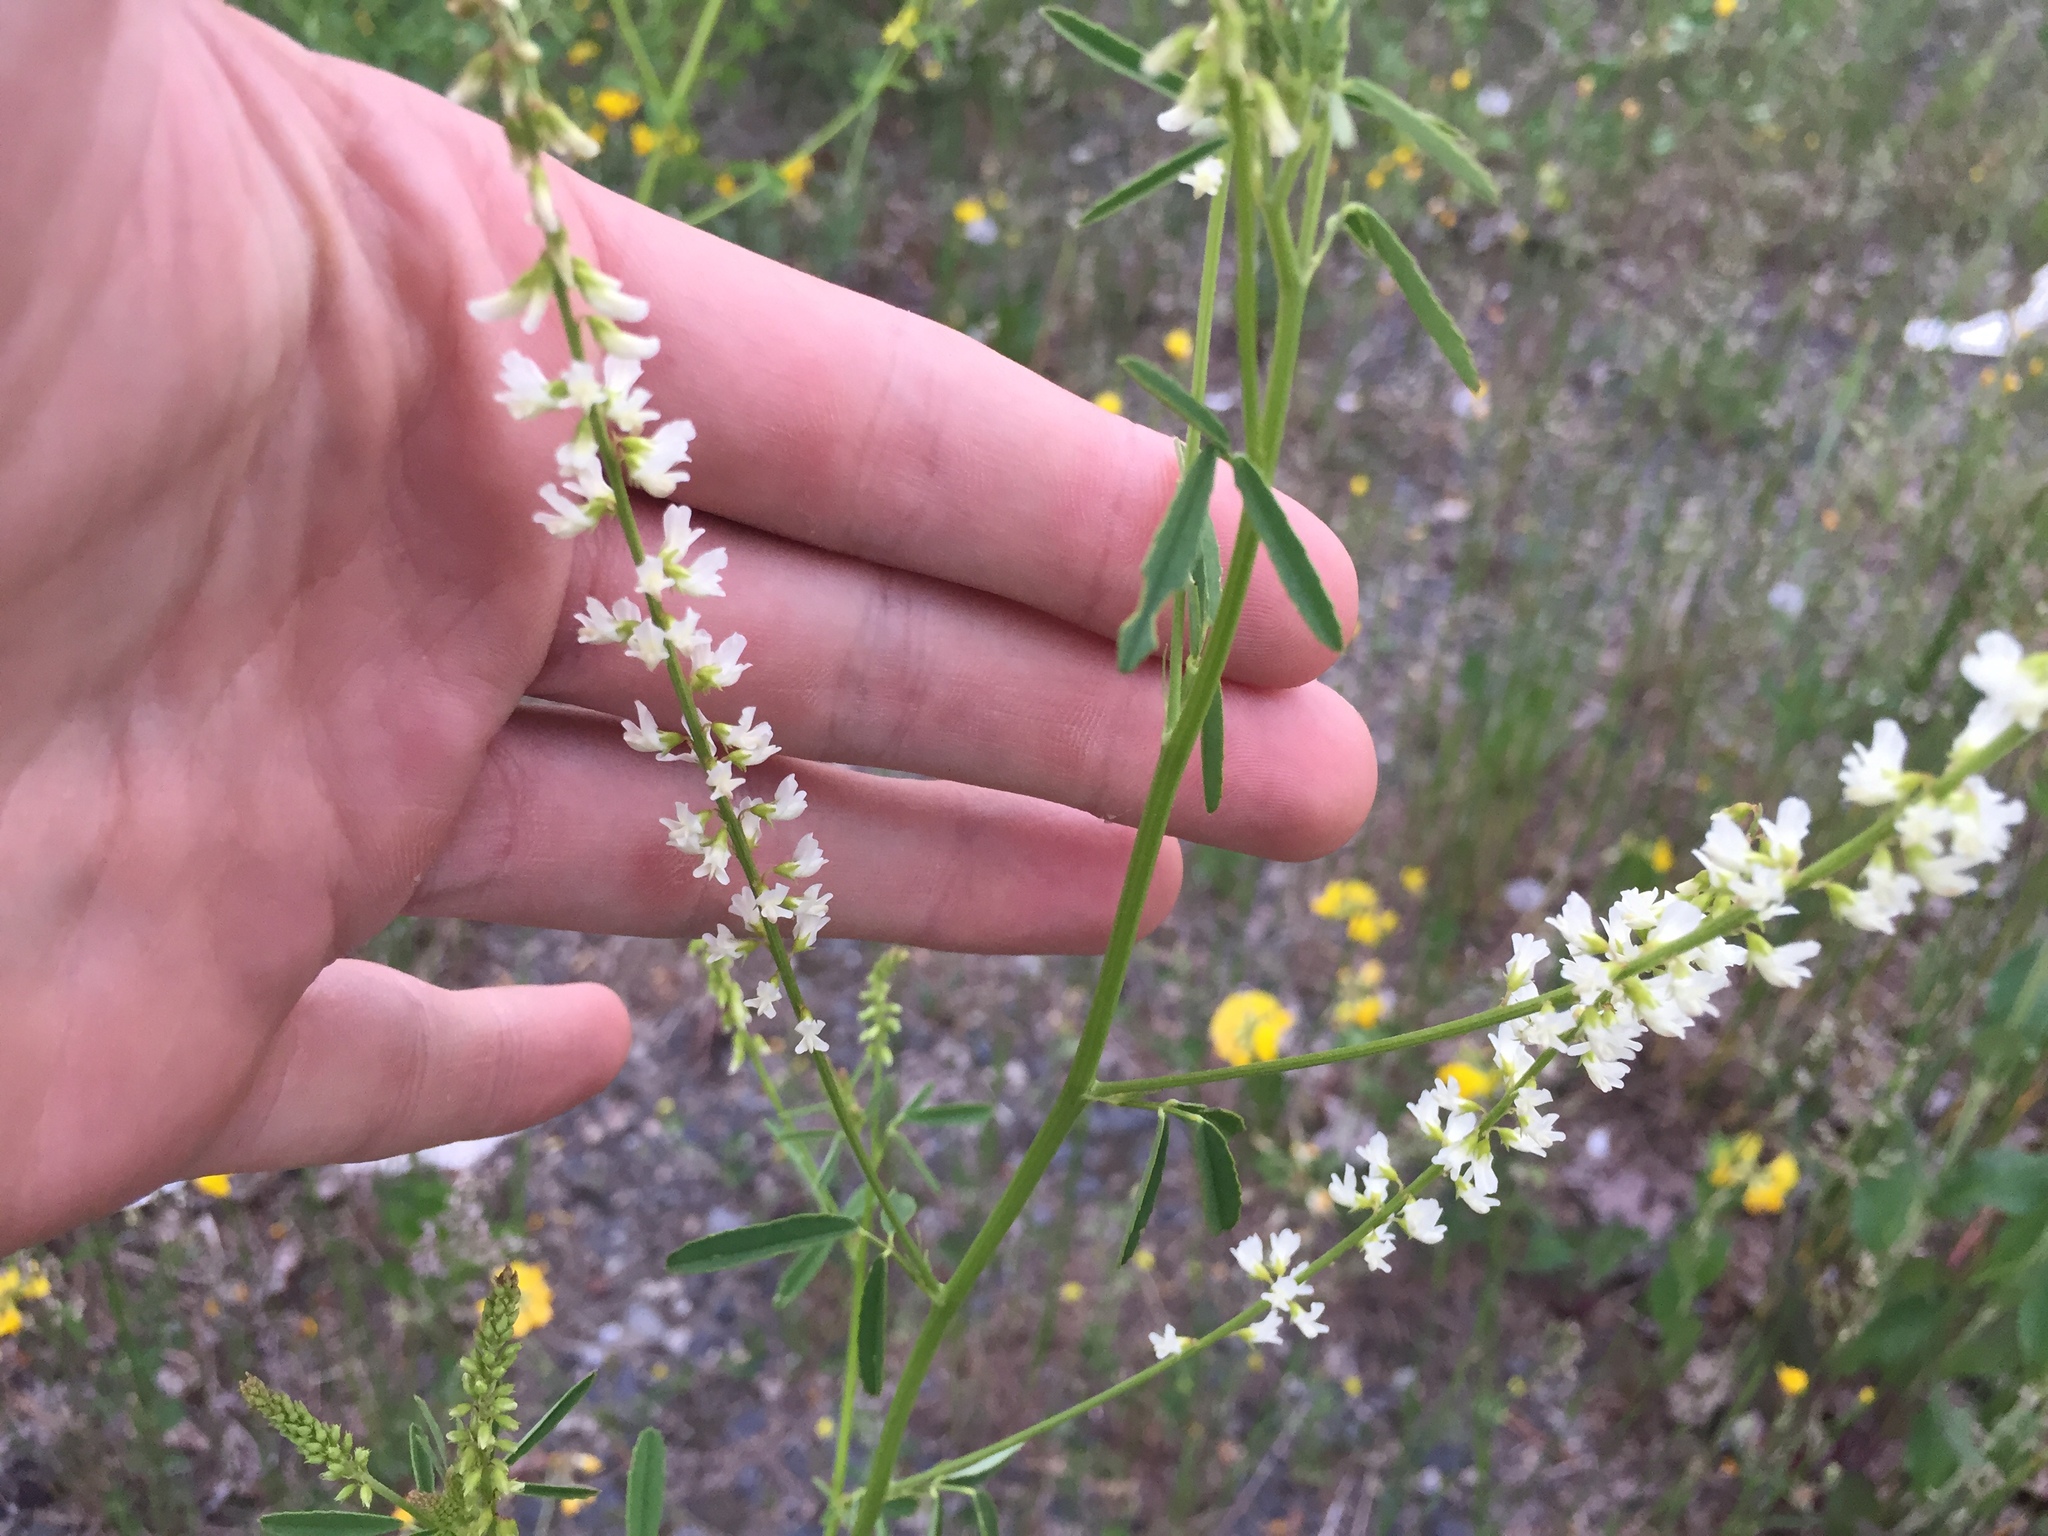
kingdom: Plantae
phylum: Tracheophyta
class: Magnoliopsida
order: Fabales
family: Fabaceae
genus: Melilotus
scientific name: Melilotus albus
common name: White melilot
